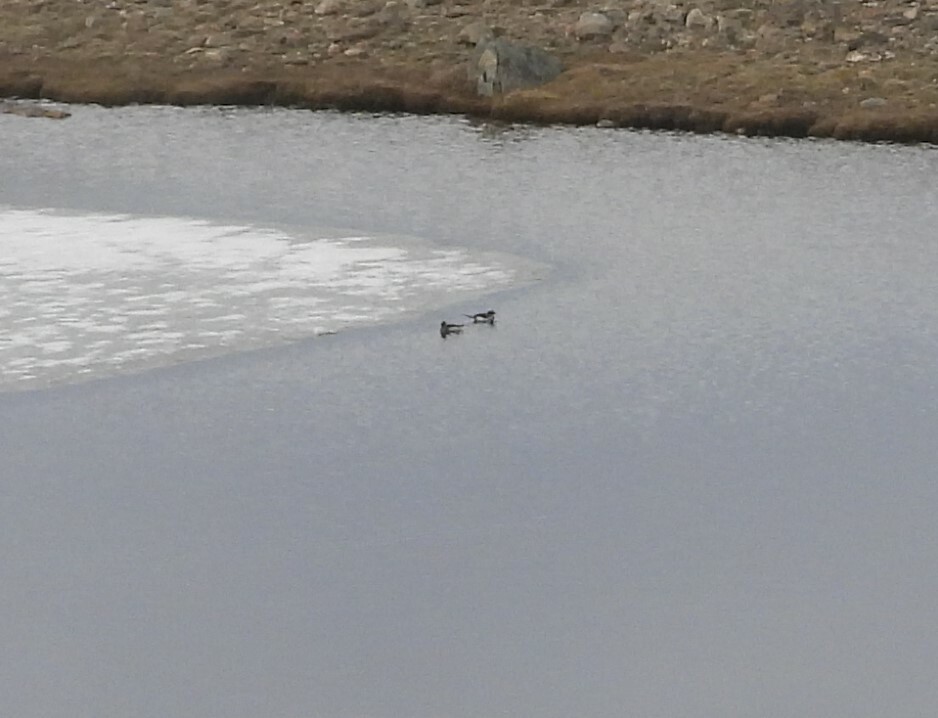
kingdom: Animalia
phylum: Chordata
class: Aves
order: Anseriformes
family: Anatidae
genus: Clangula
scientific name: Clangula hyemalis
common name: Long-tailed duck
